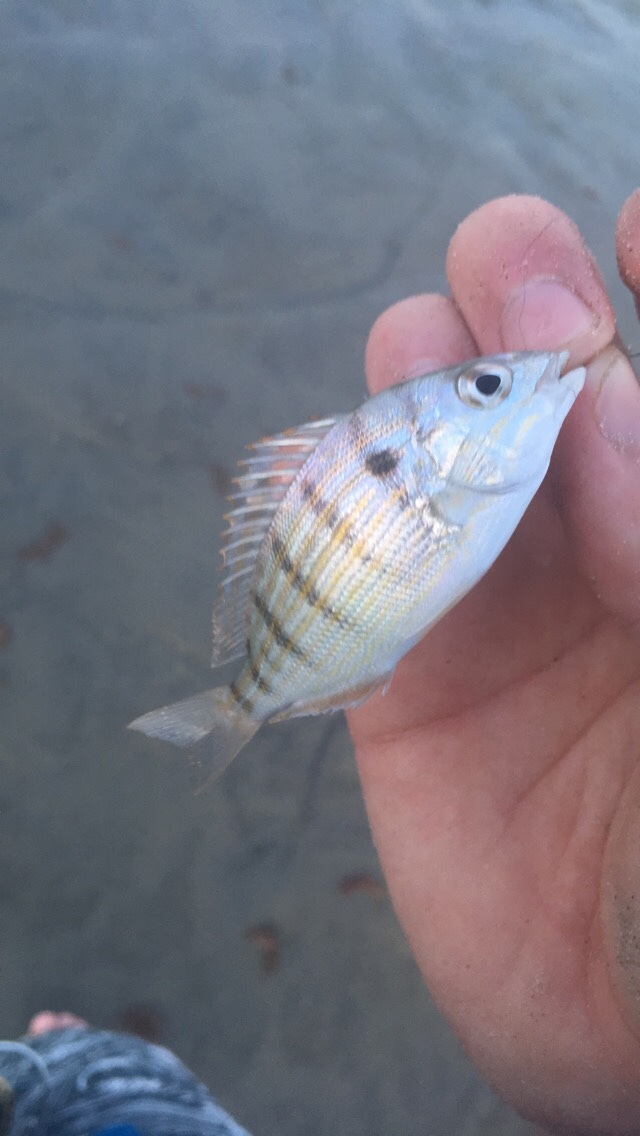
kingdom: Animalia
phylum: Chordata
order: Perciformes
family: Sparidae
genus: Lagodon
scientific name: Lagodon rhomboides
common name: Pinfish
